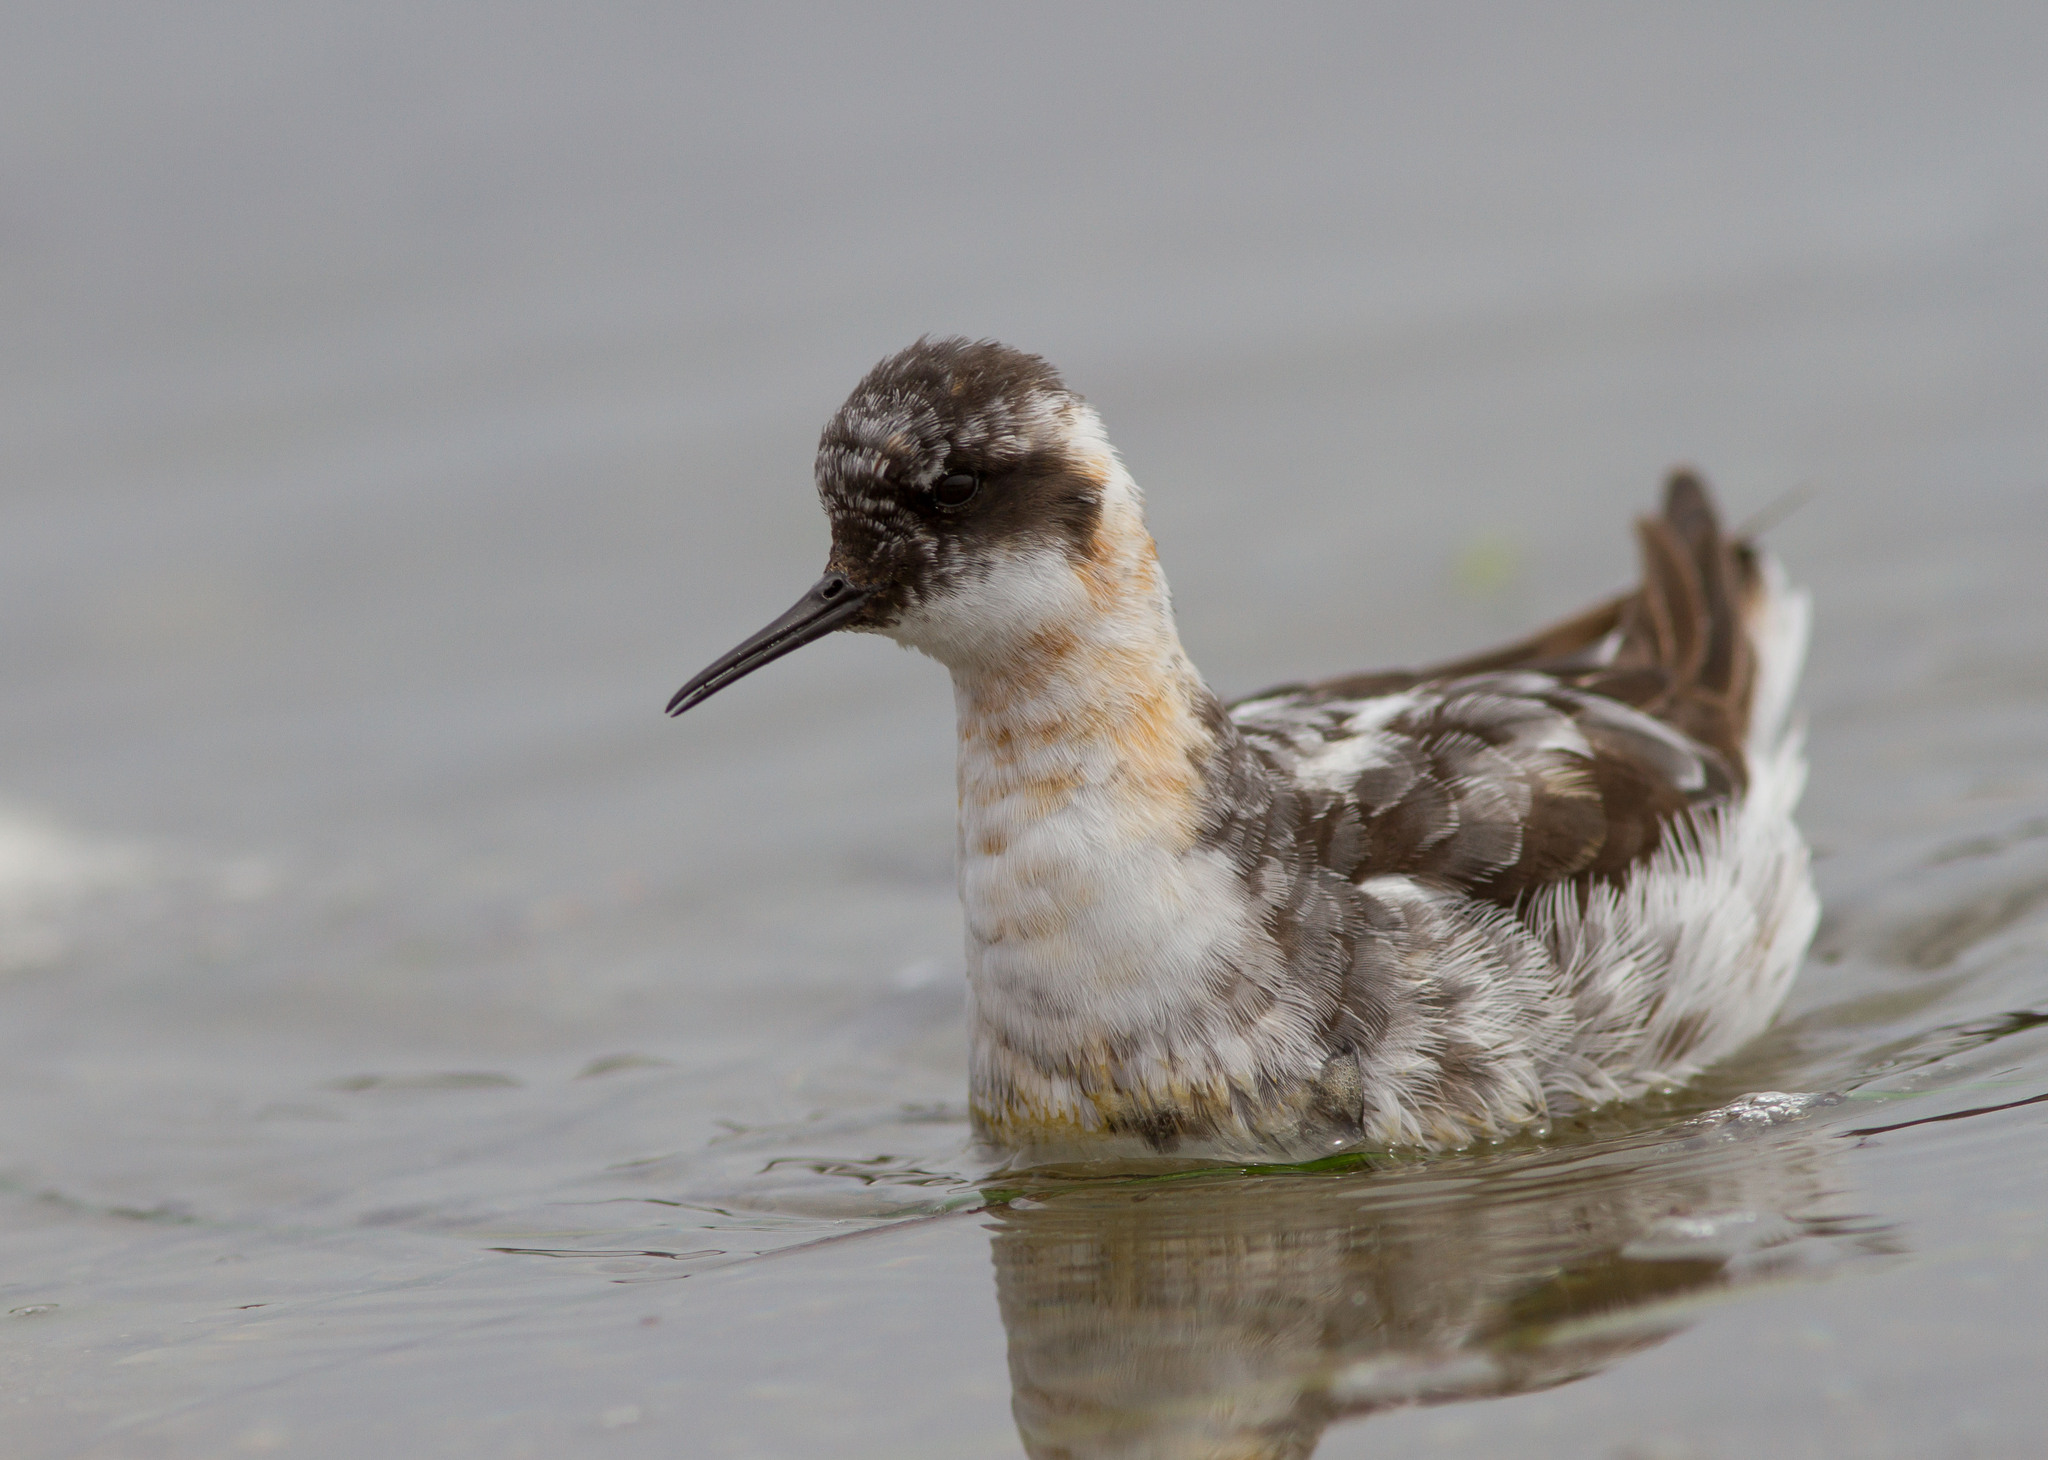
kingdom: Animalia
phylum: Chordata
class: Aves
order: Charadriiformes
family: Scolopacidae
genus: Phalaropus
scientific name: Phalaropus lobatus
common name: Red-necked phalarope
